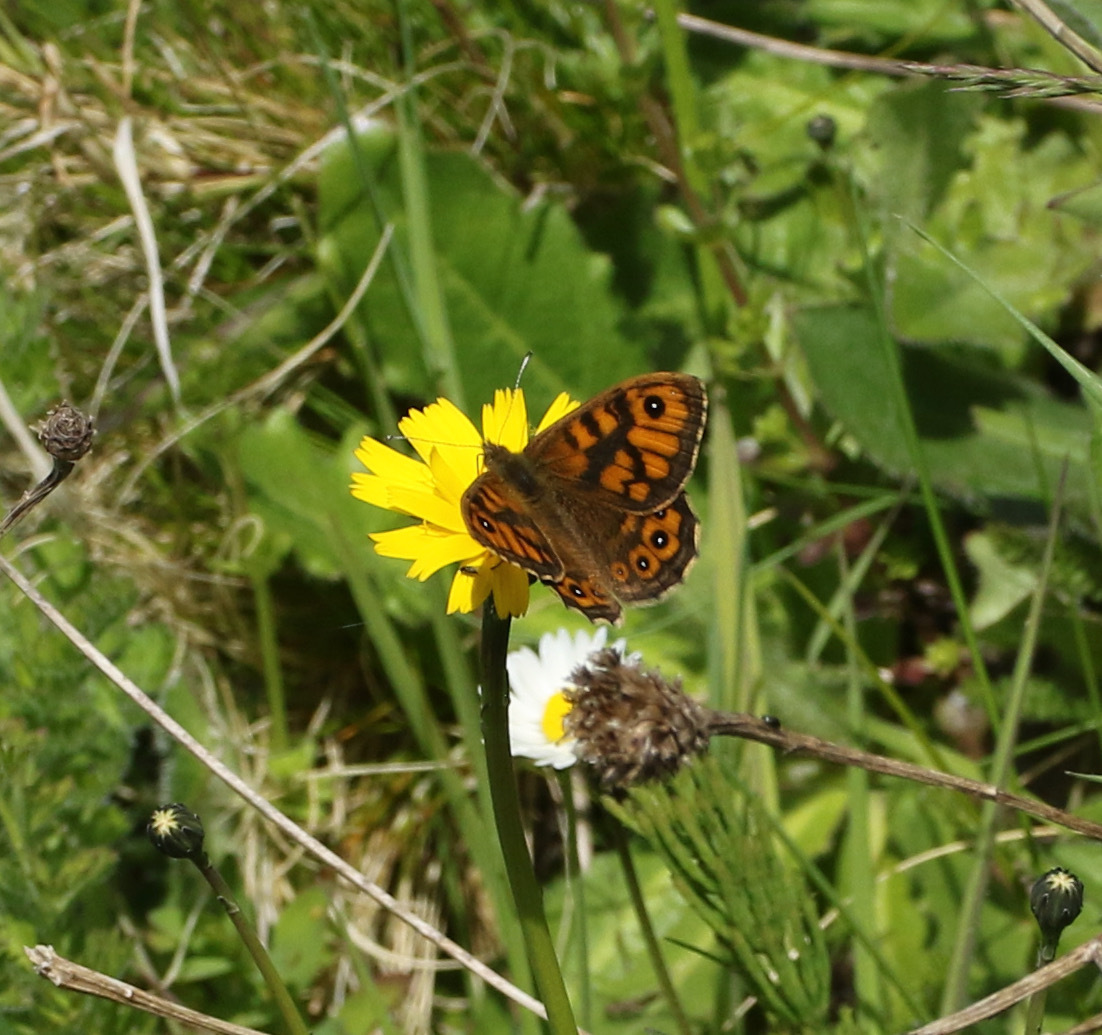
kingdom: Animalia
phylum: Arthropoda
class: Insecta
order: Lepidoptera
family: Nymphalidae
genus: Pararge
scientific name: Pararge Lasiommata megera
